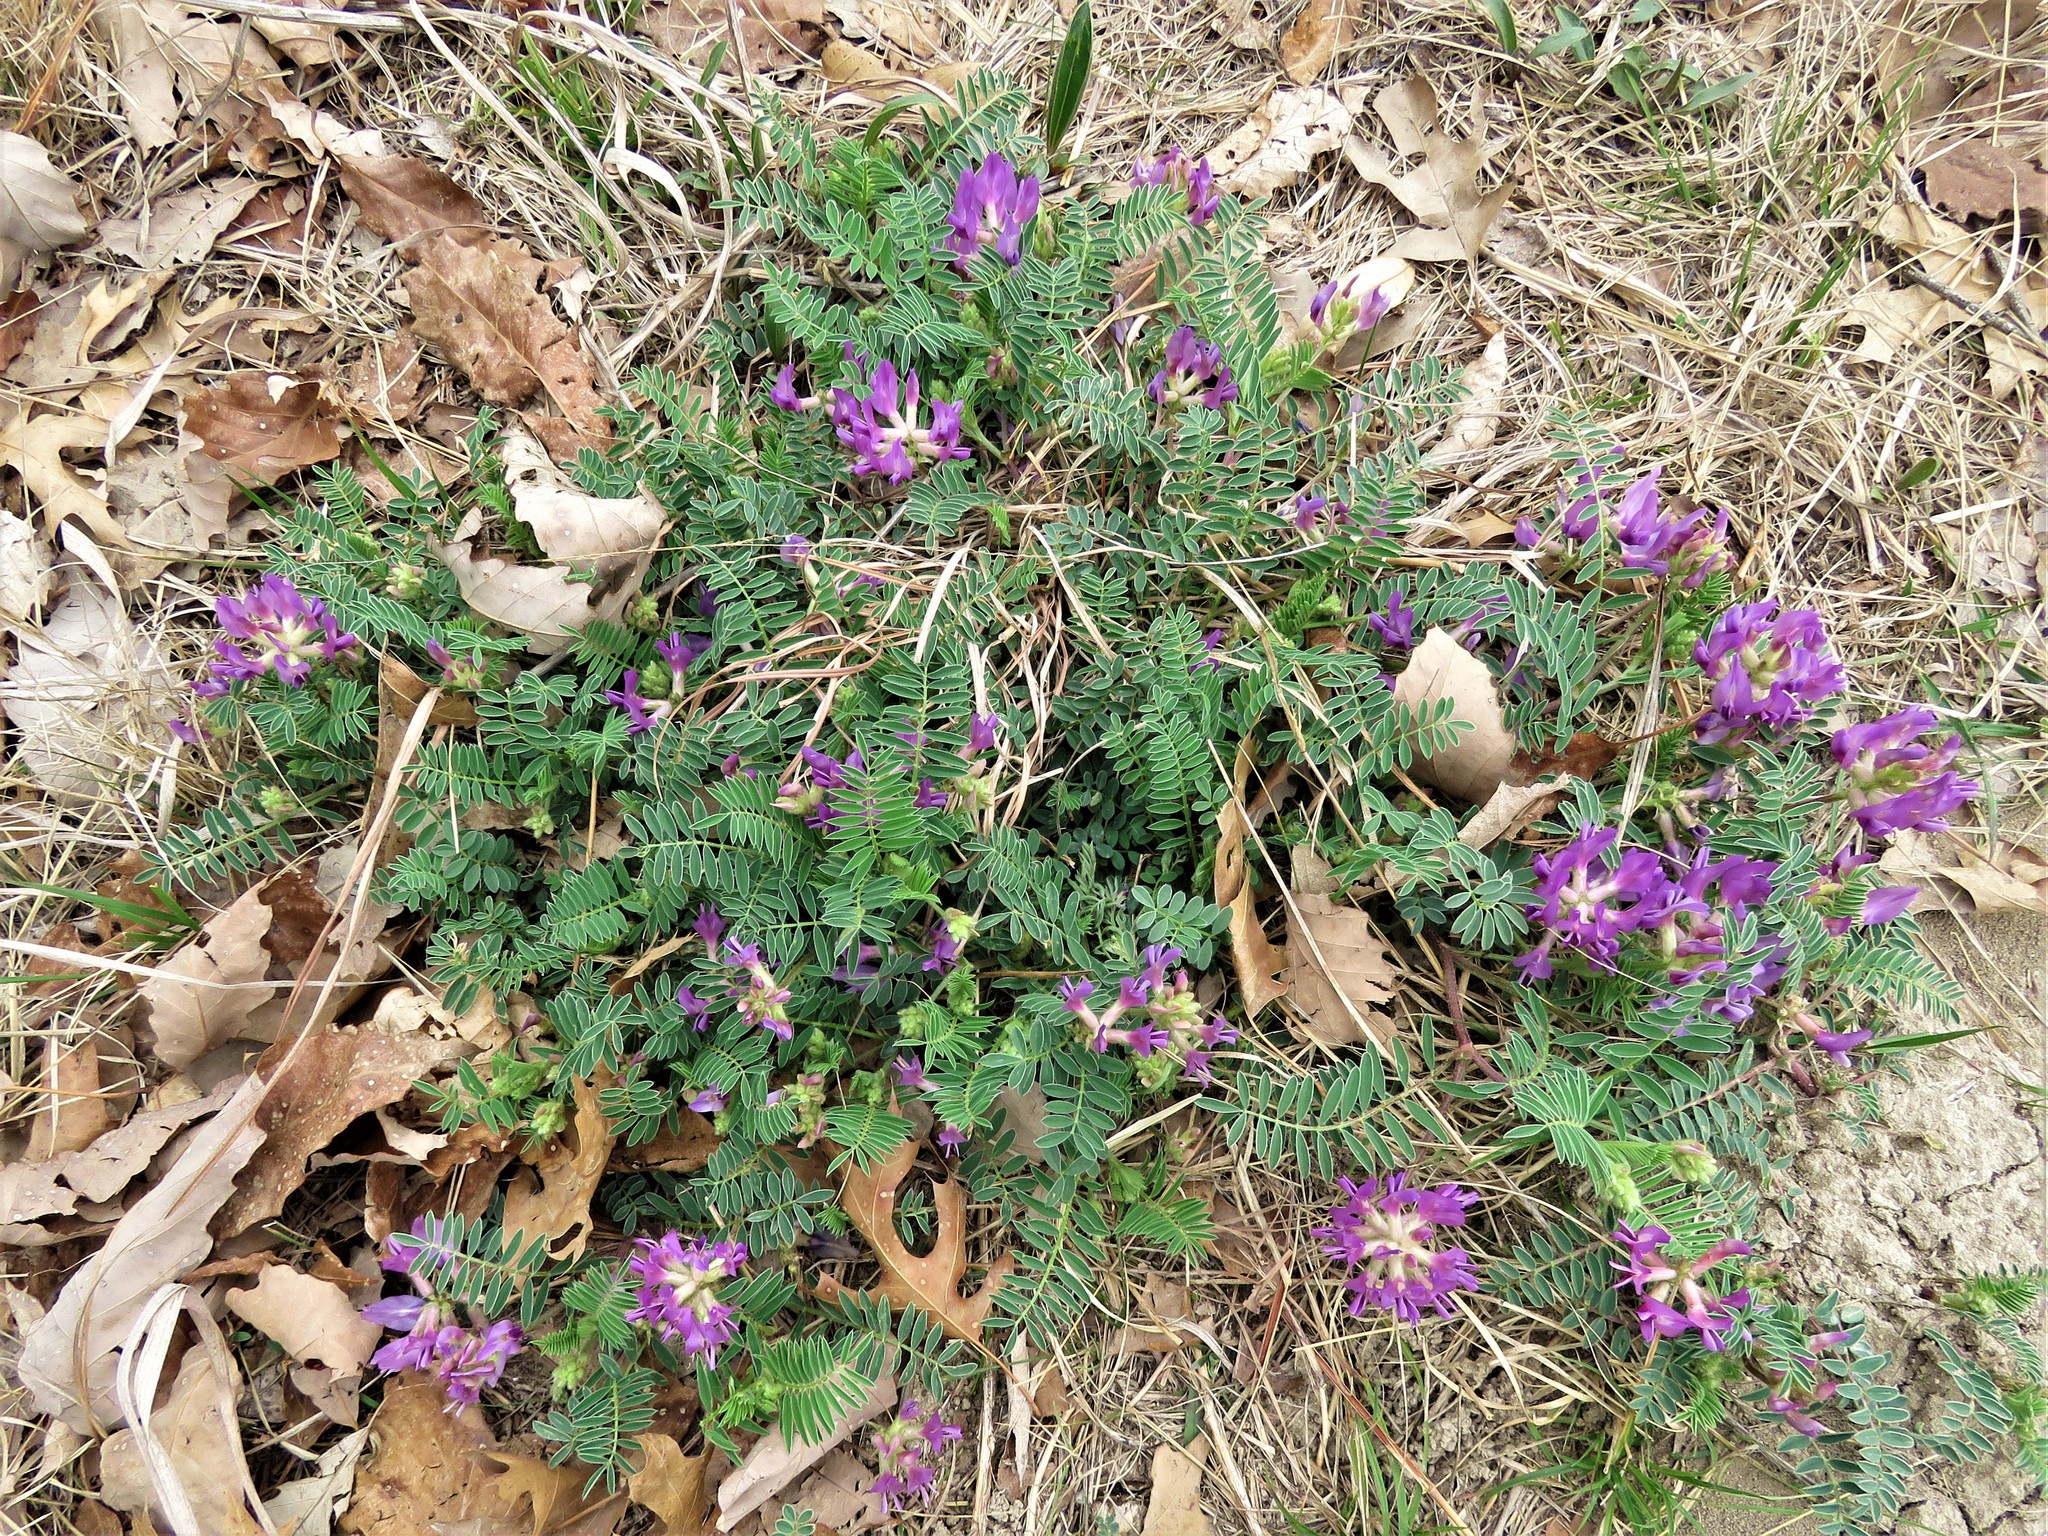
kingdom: Plantae
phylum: Tracheophyta
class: Magnoliopsida
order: Fabales
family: Fabaceae
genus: Astragalus
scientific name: Astragalus crassicarpus
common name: Ground-plum milk-vetch
